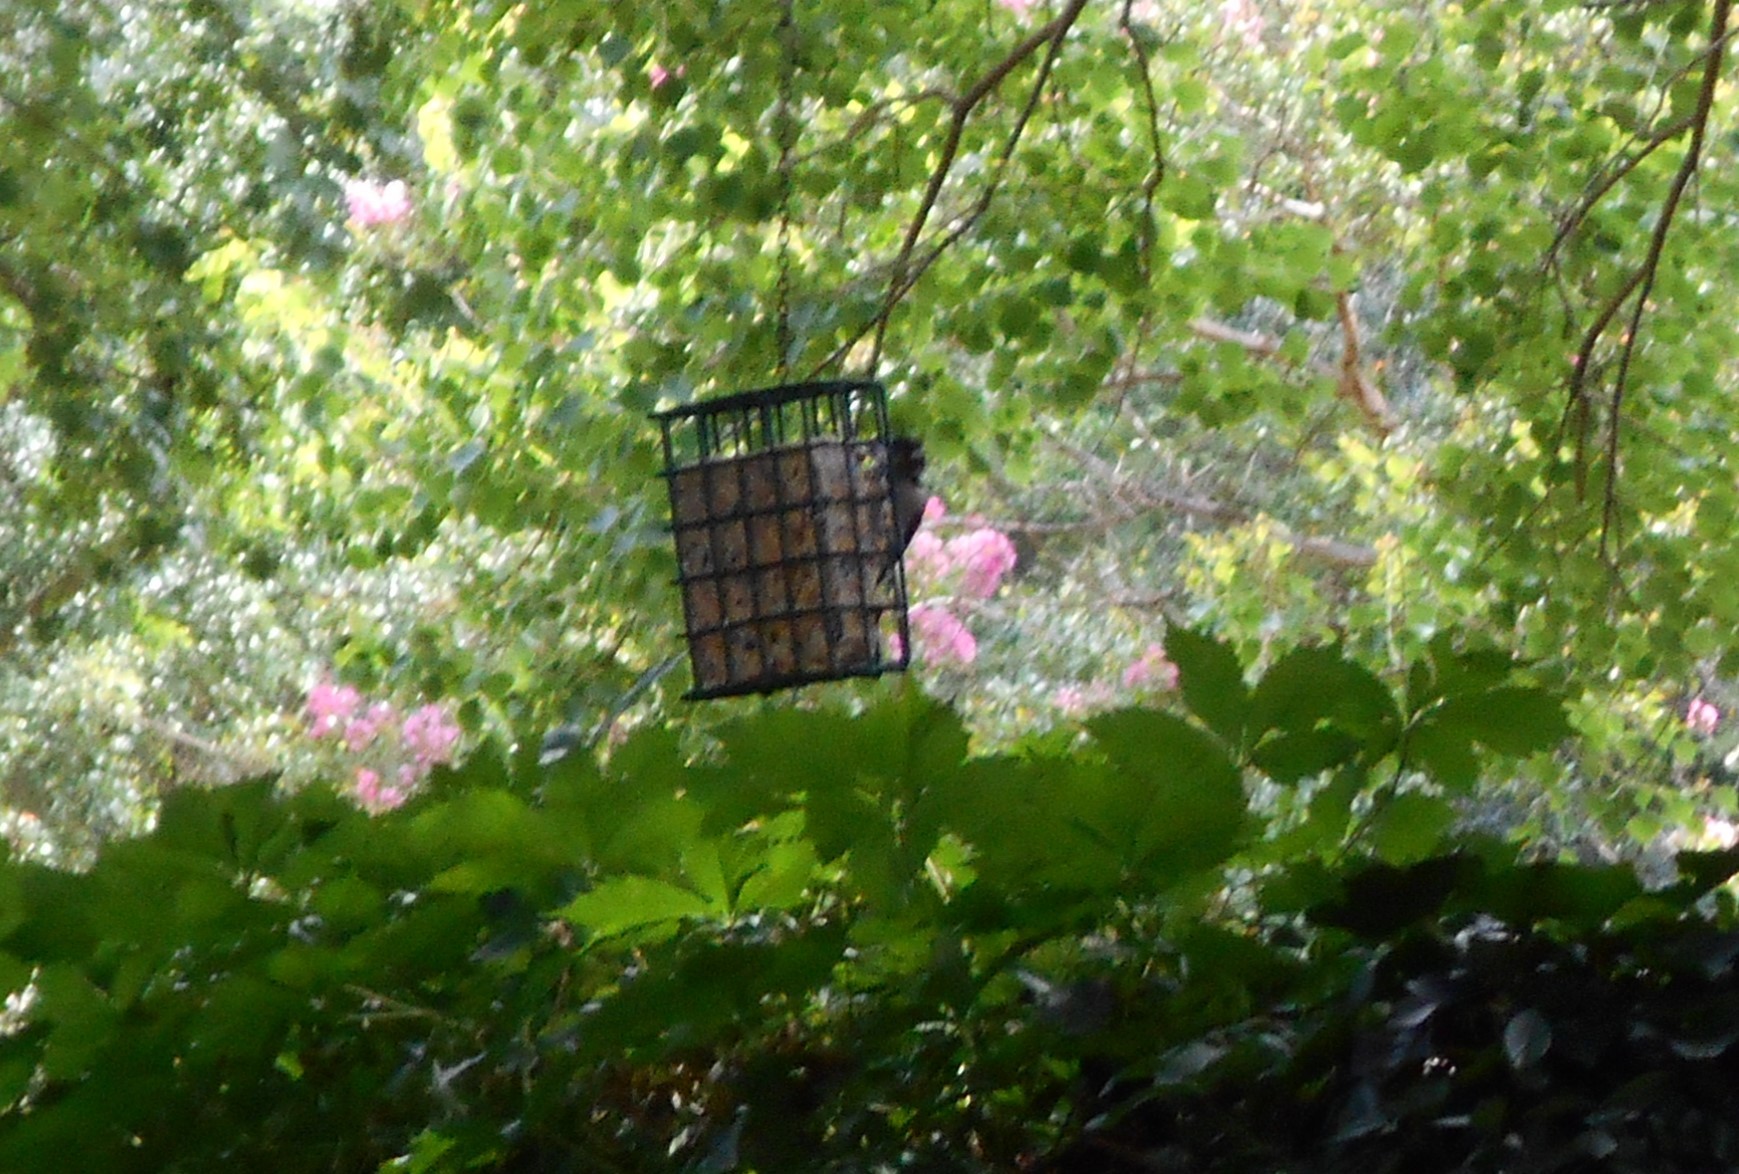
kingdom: Animalia
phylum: Chordata
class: Aves
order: Piciformes
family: Picidae
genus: Dryobates
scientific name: Dryobates pubescens
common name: Downy woodpecker
